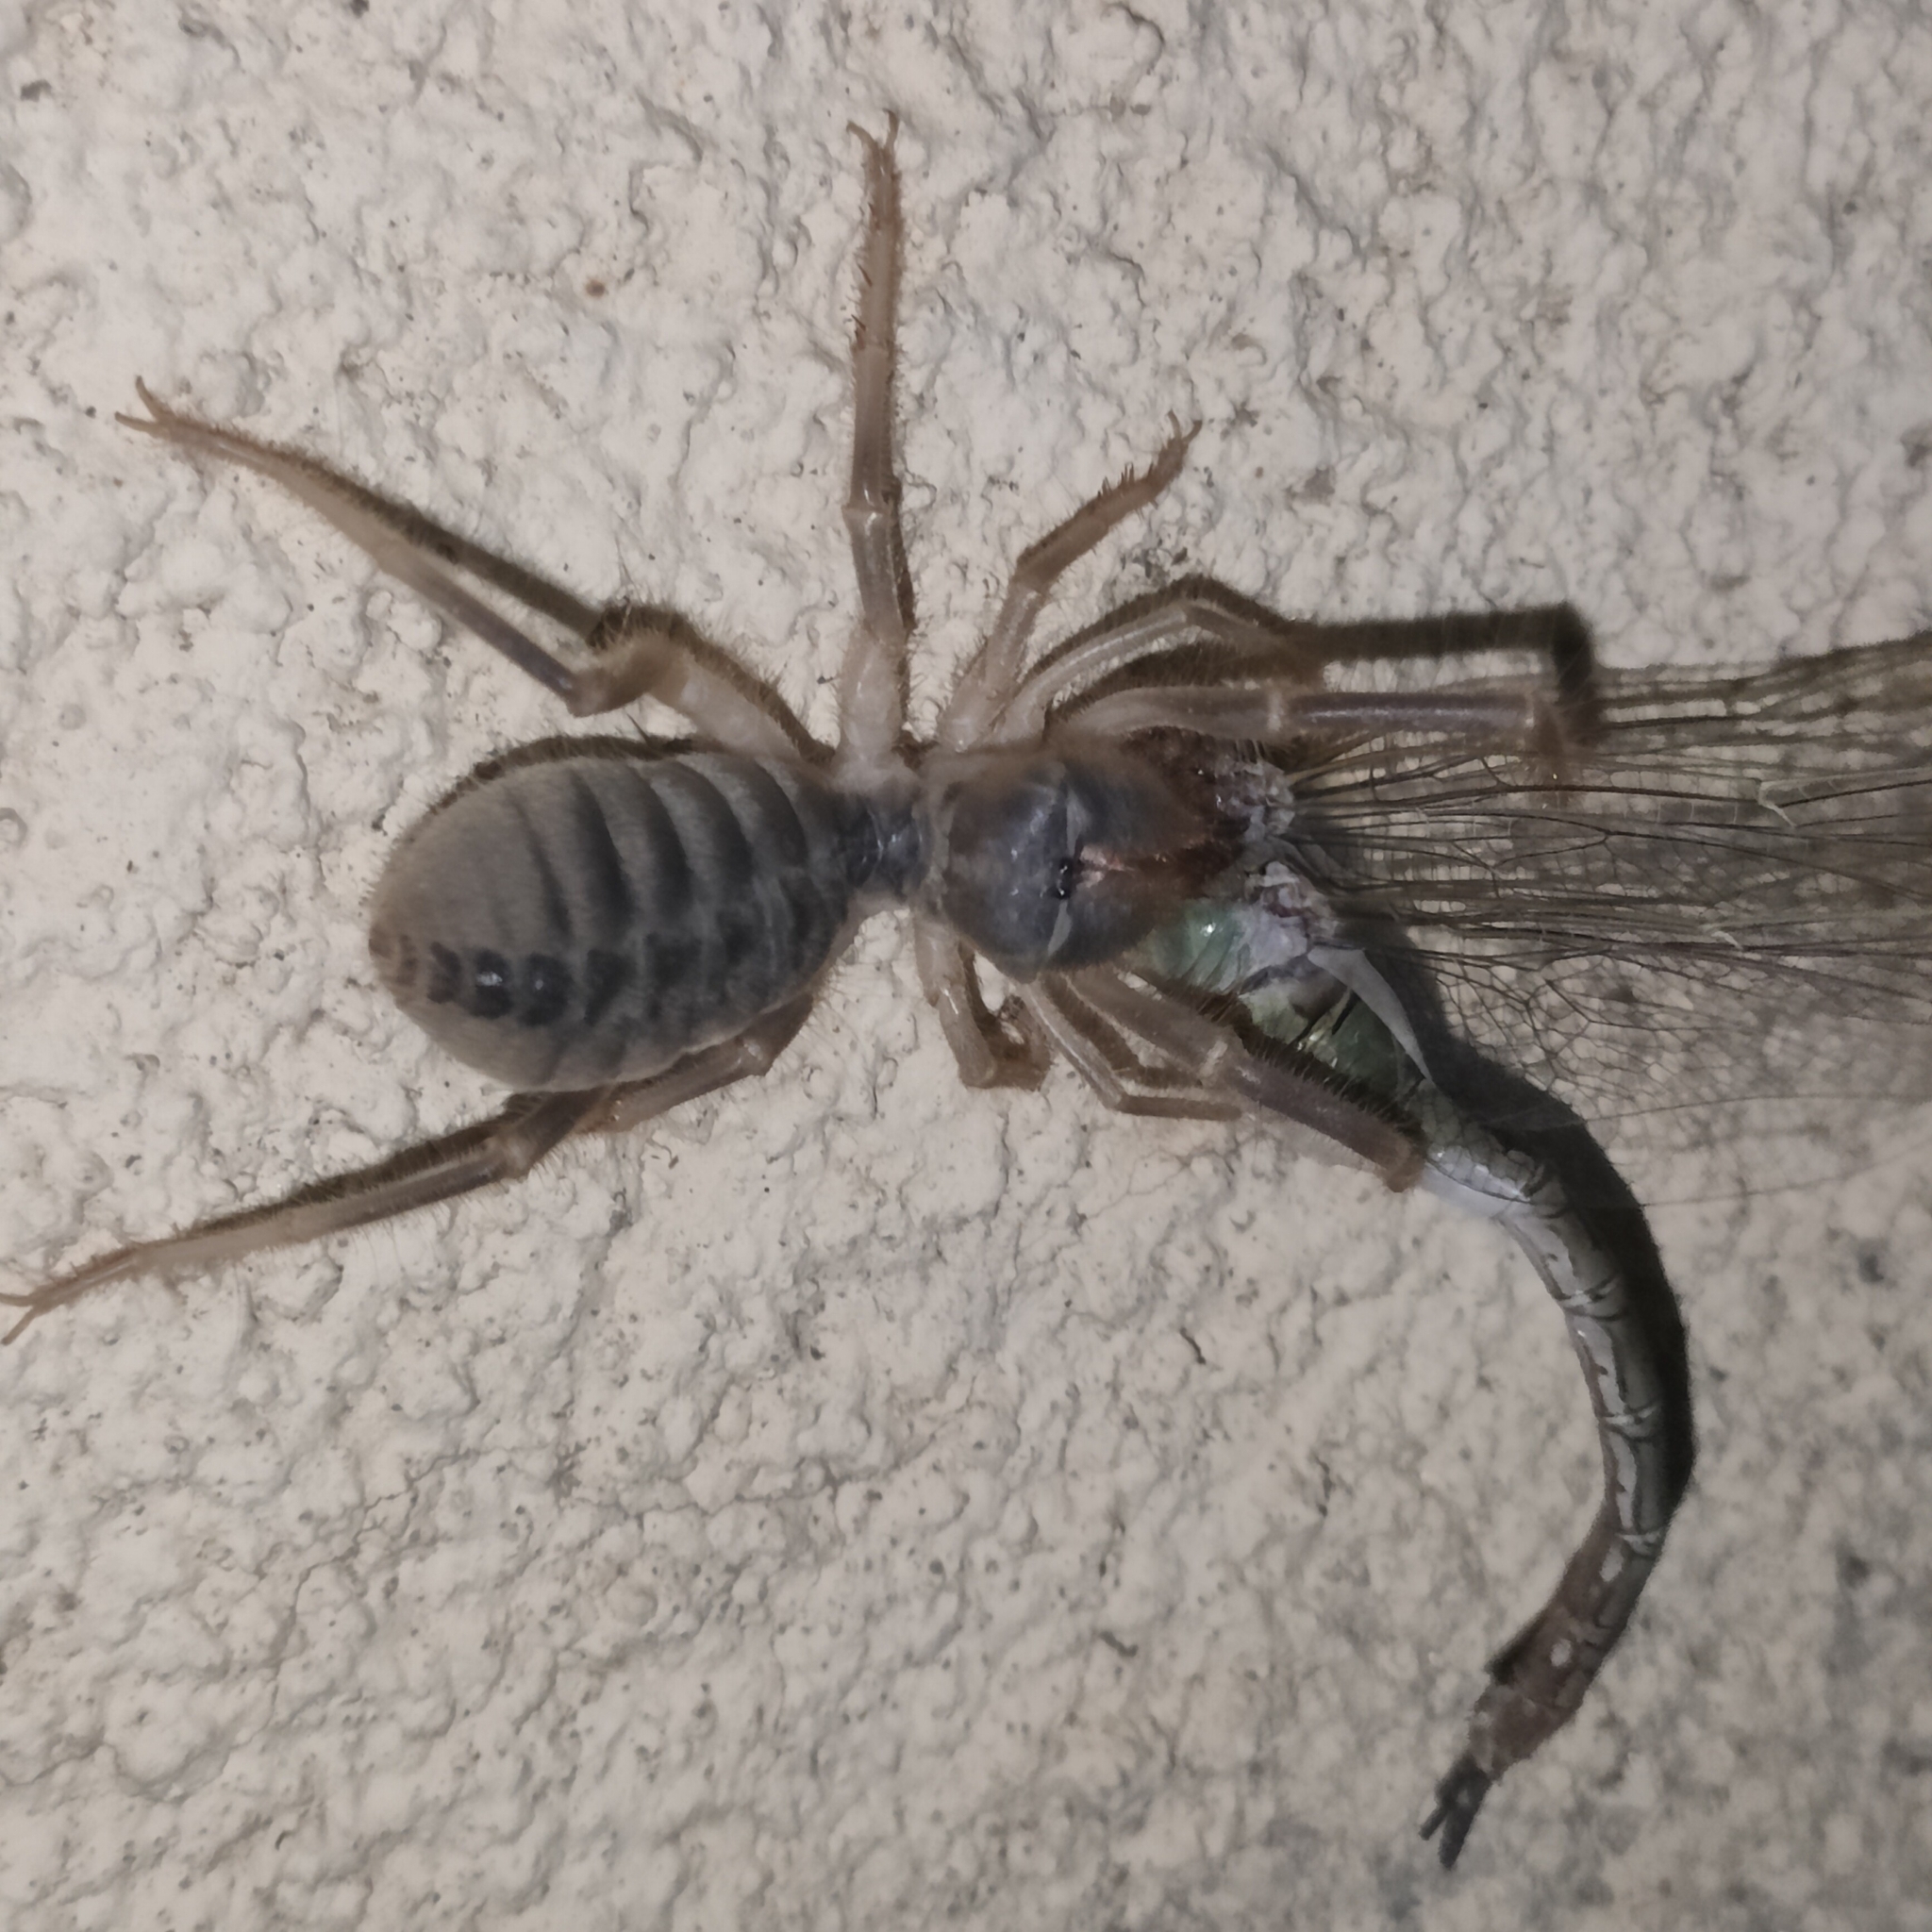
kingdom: Animalia
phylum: Arthropoda
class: Arachnida
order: Solifugae
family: Galeodidae
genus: Galeodes
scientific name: Galeodes araneoides
